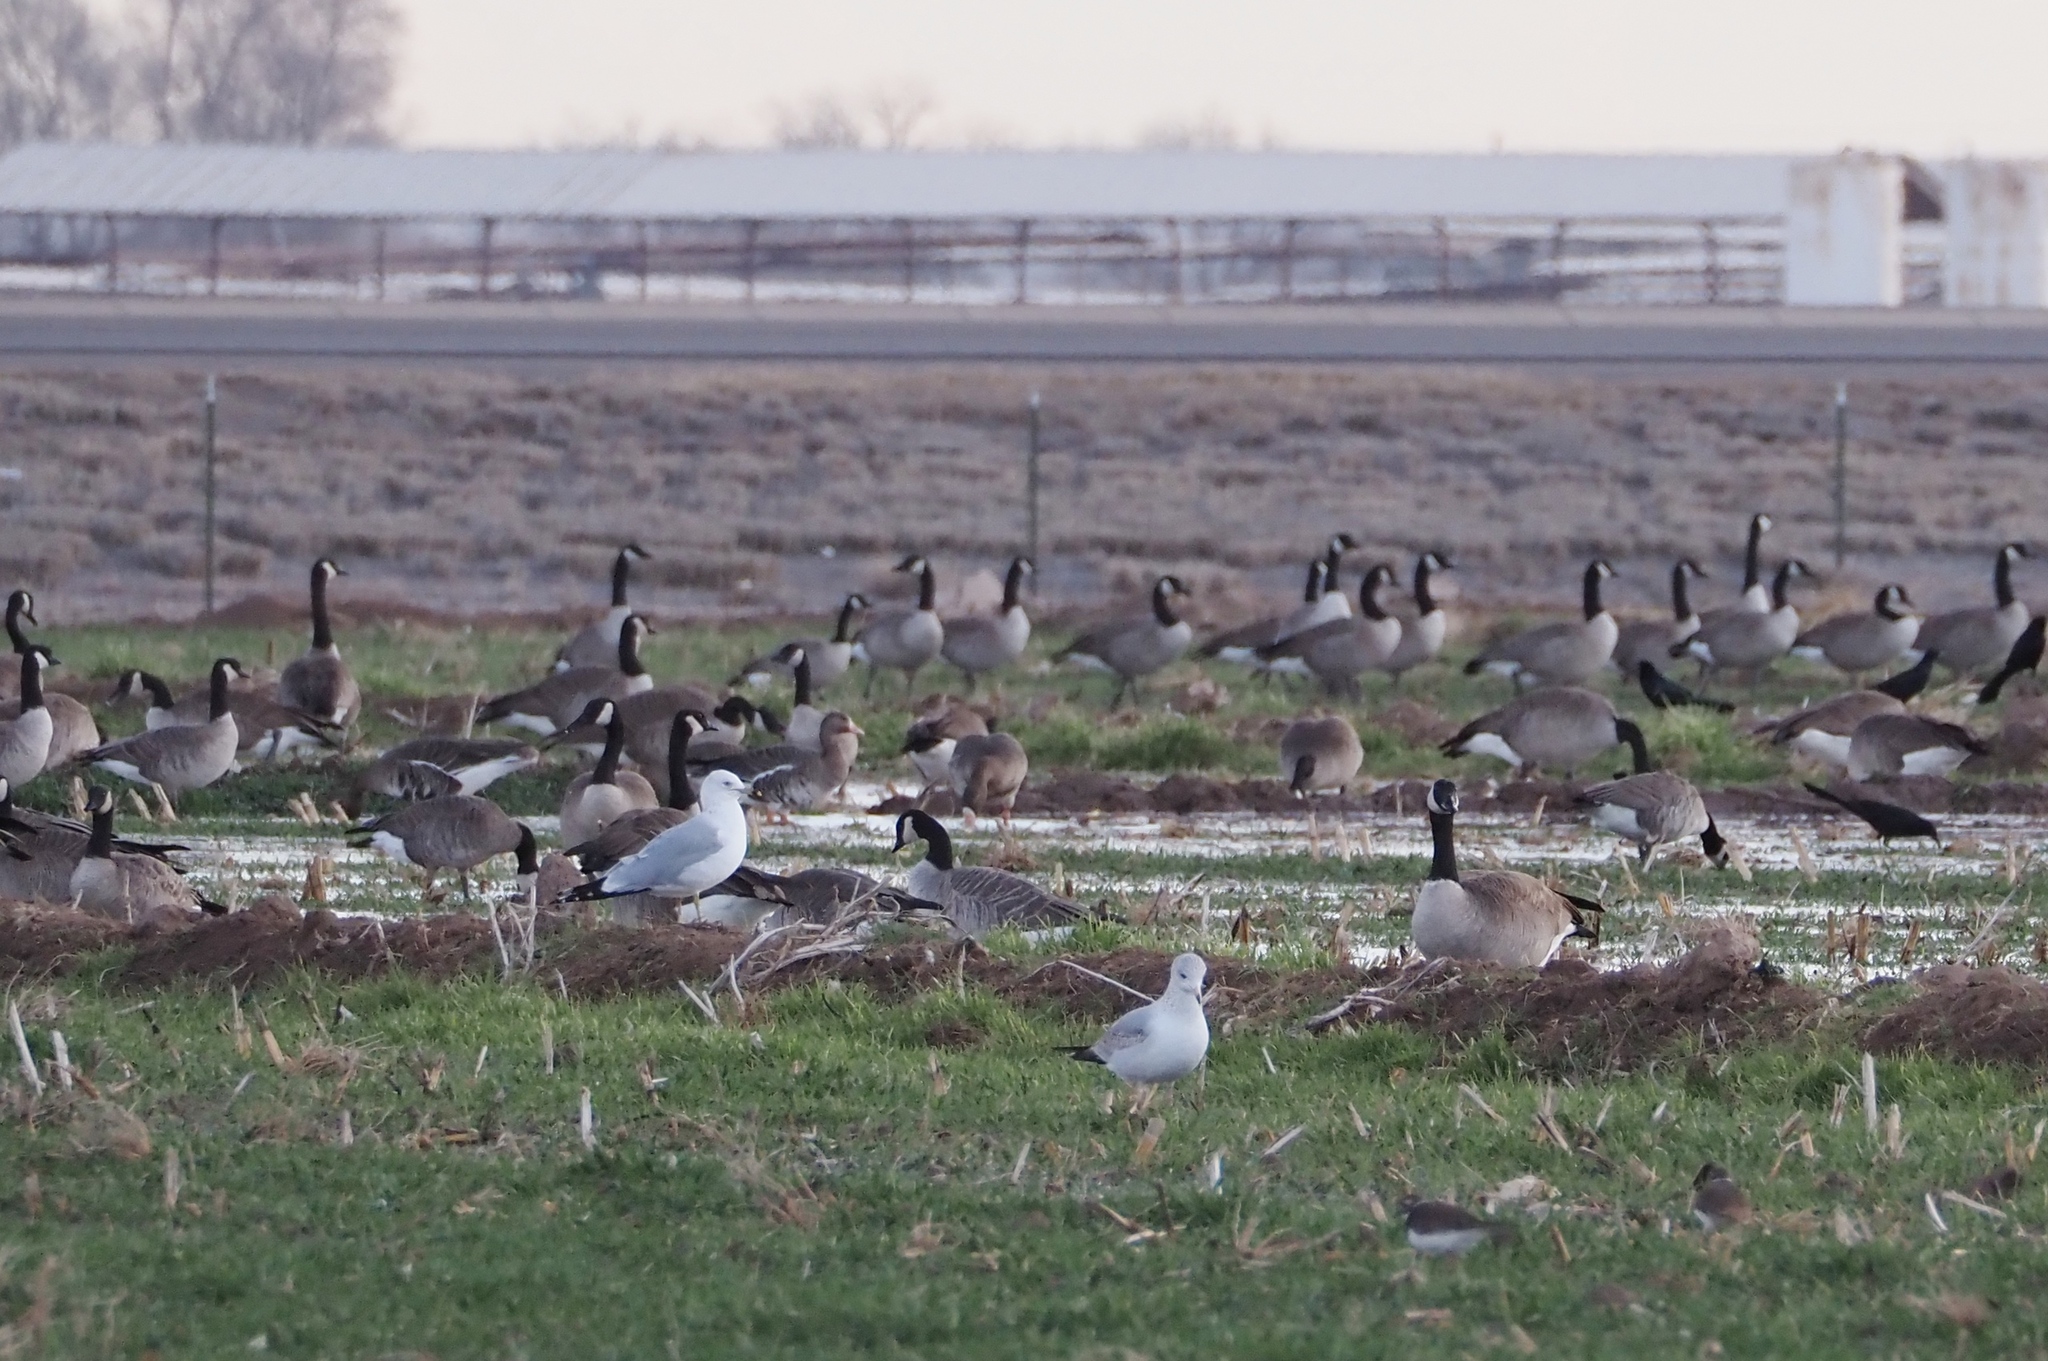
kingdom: Animalia
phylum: Chordata
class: Aves
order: Anseriformes
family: Anatidae
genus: Branta
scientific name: Branta canadensis
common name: Canada goose
